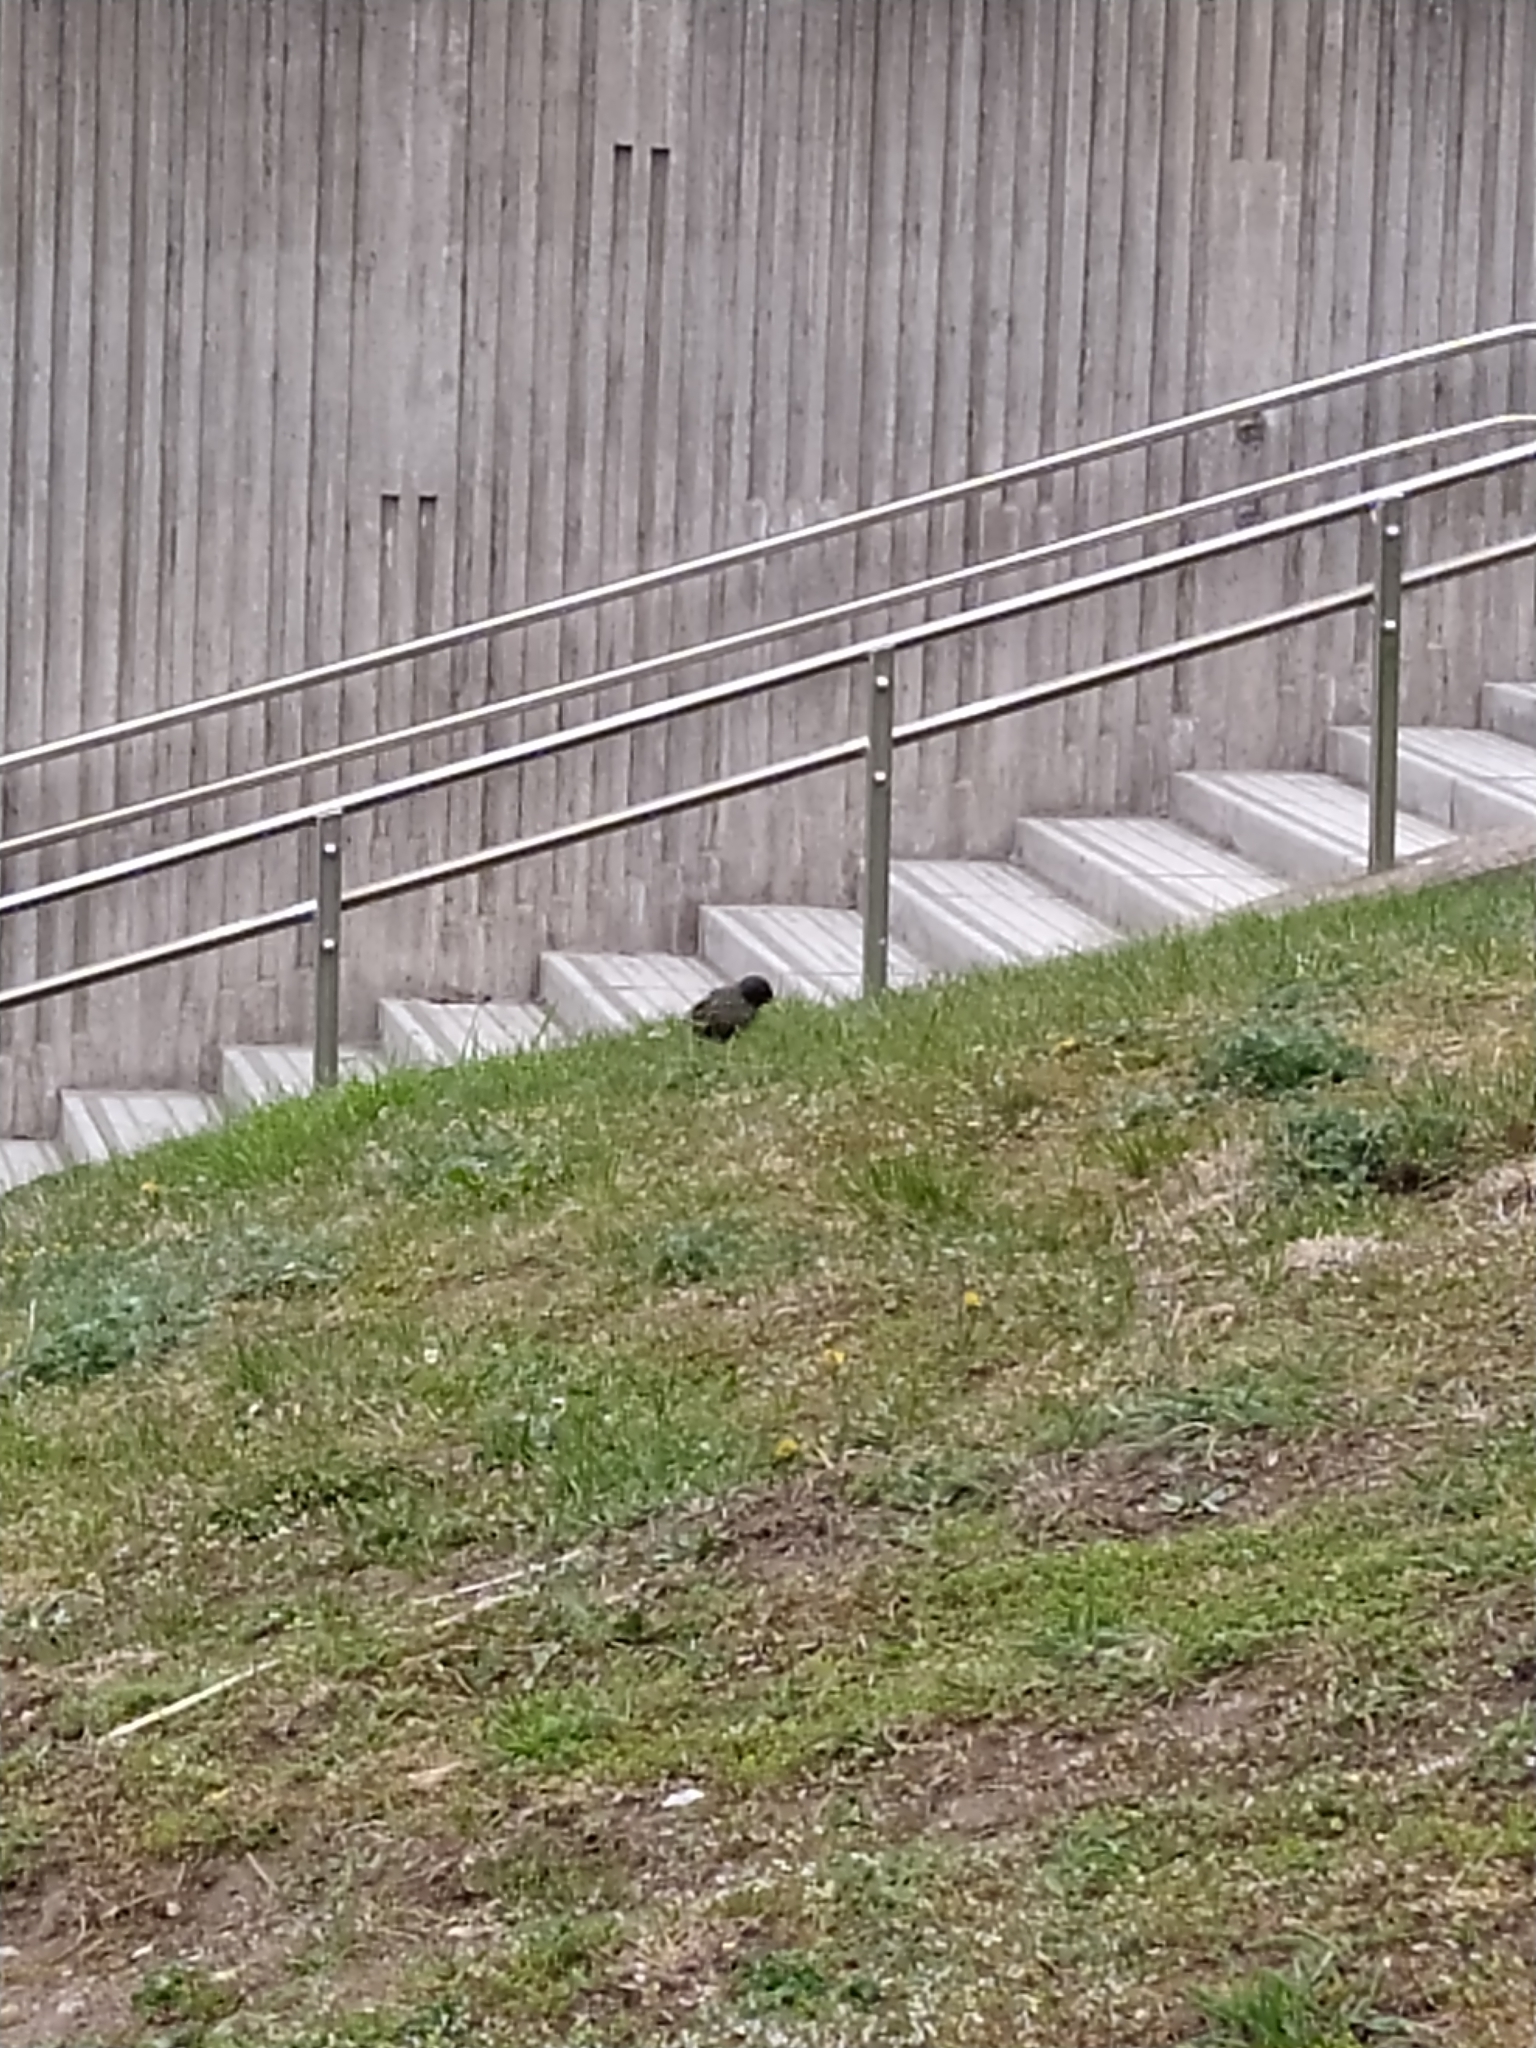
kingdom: Animalia
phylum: Chordata
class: Aves
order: Passeriformes
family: Sturnidae
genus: Sturnus
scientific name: Sturnus vulgaris
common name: Common starling
